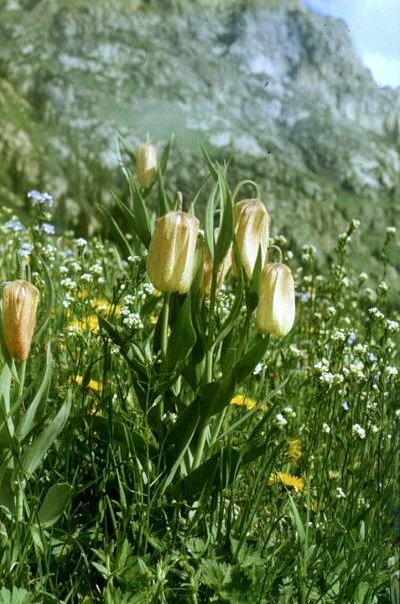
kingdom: Plantae
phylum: Tracheophyta
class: Liliopsida
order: Liliales
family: Liliaceae
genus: Fritillaria
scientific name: Fritillaria pallidiflora
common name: Sinkiang fritillaria
